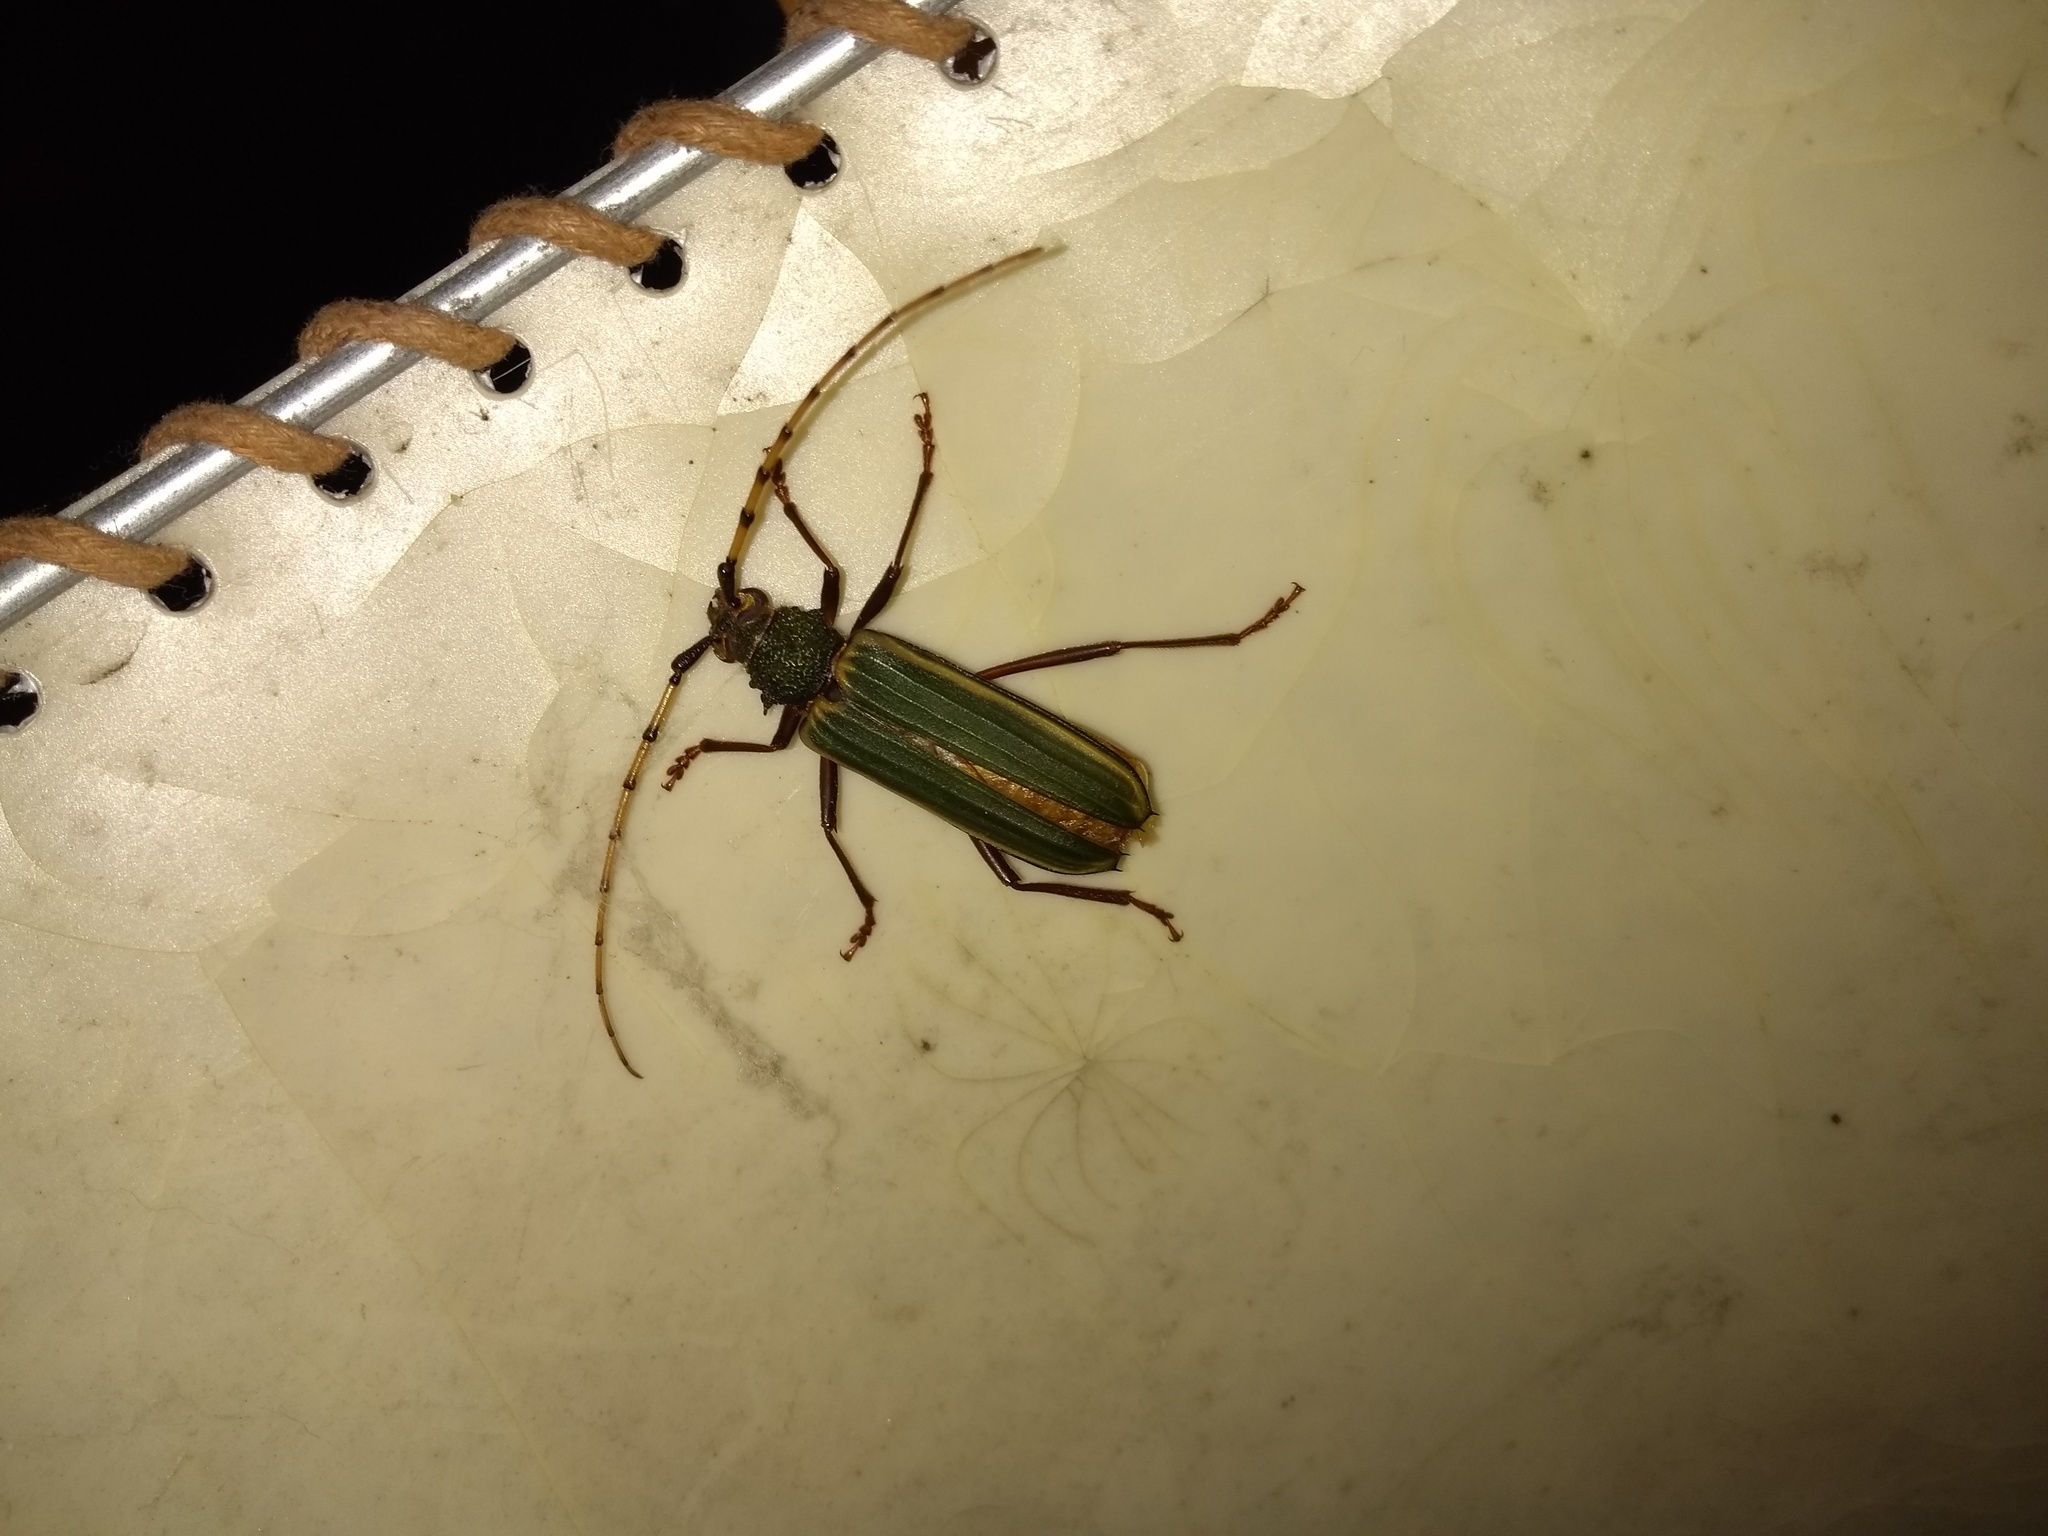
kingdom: Animalia
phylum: Arthropoda
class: Insecta
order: Coleoptera
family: Cerambycidae
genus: Chlorida
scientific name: Chlorida costata
